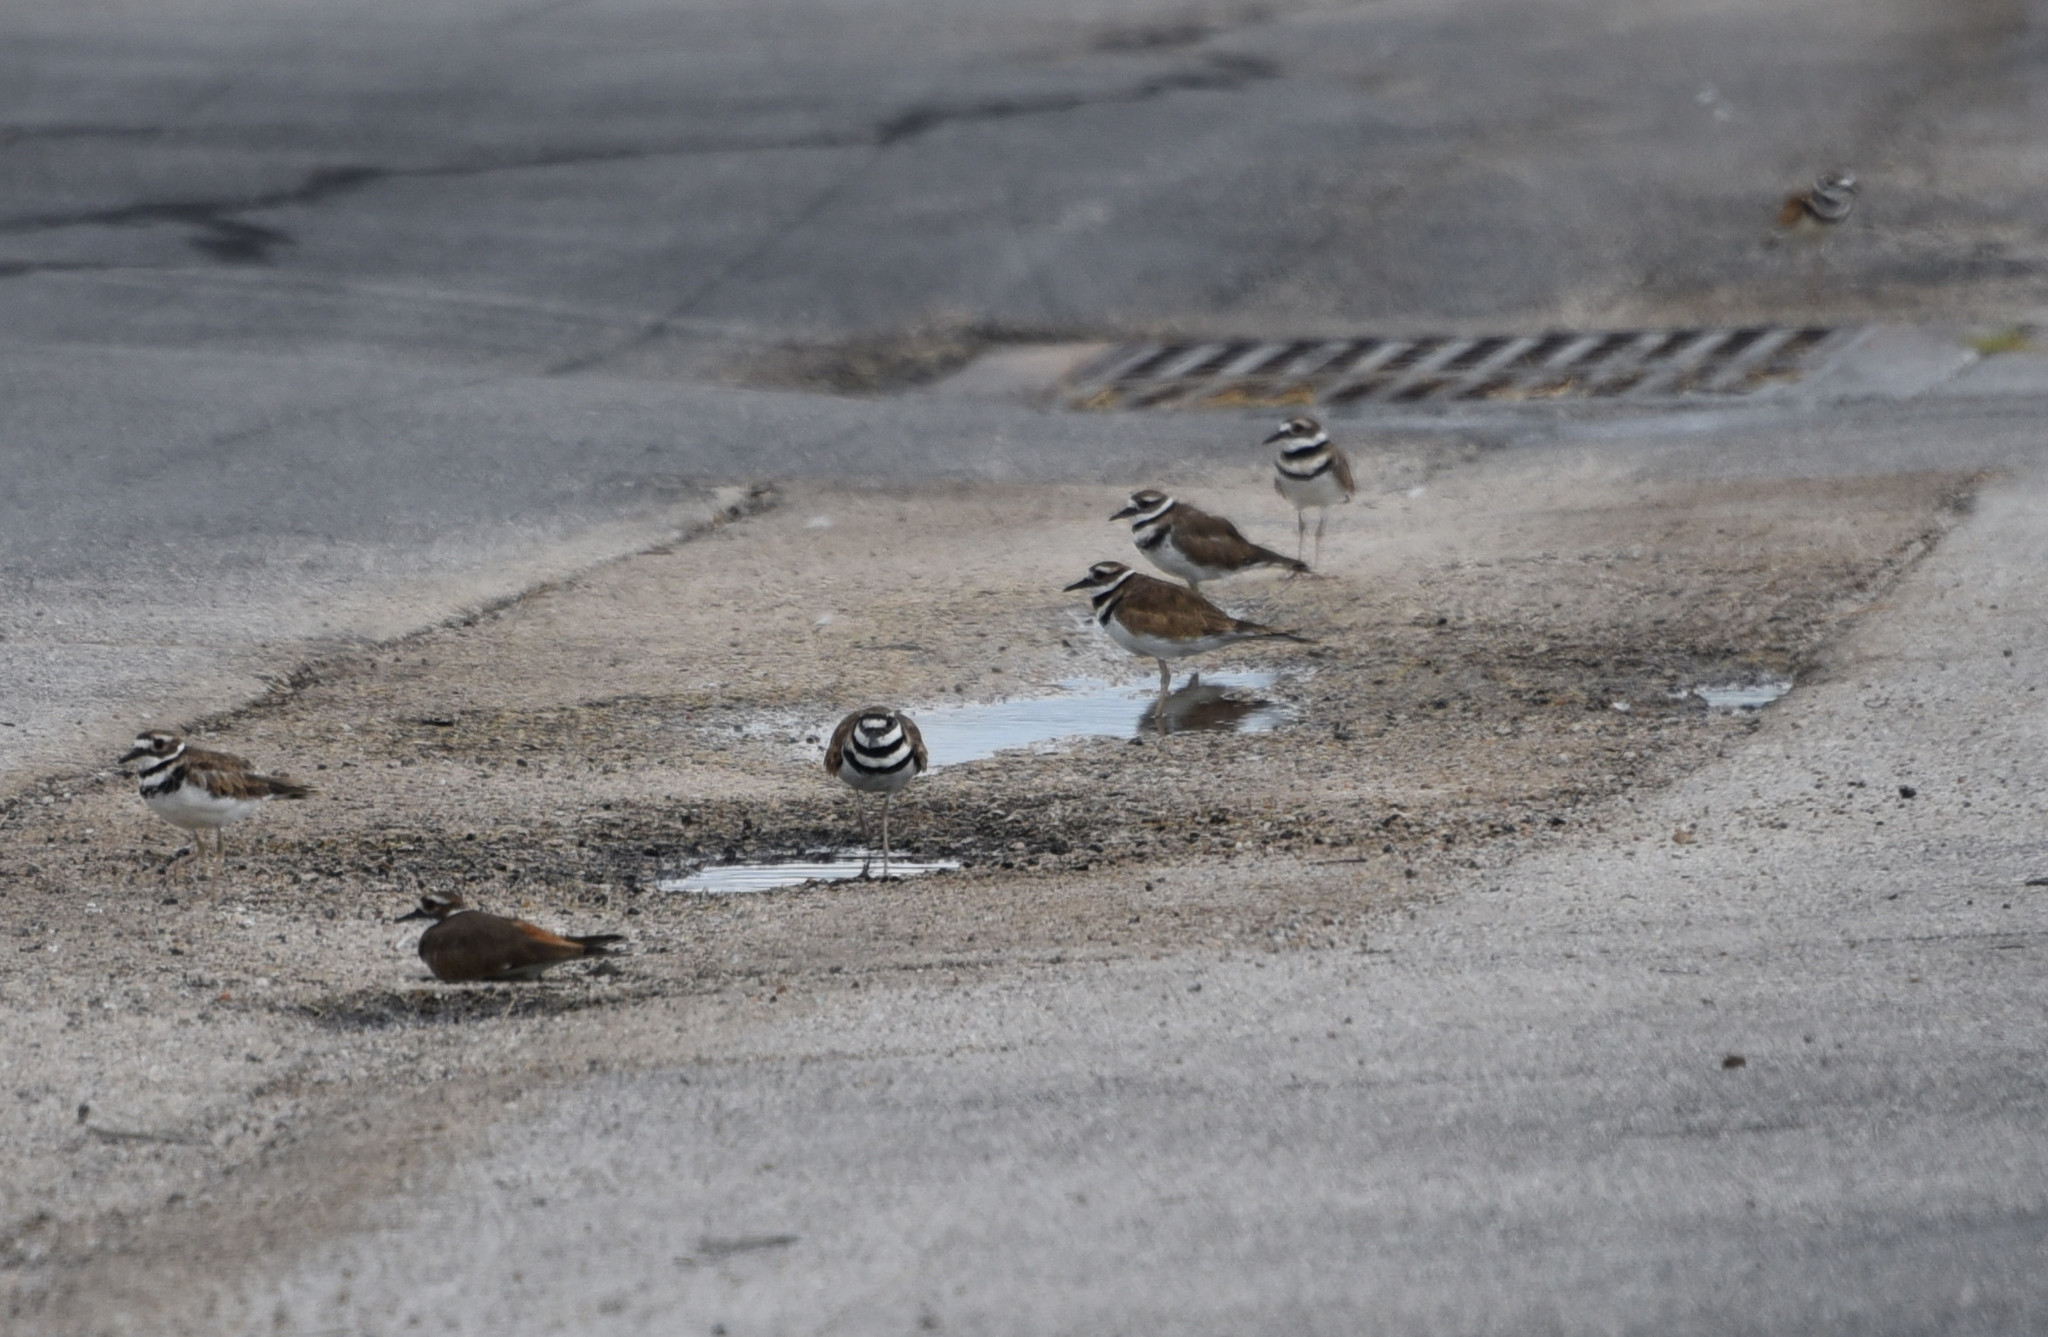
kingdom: Animalia
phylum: Chordata
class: Aves
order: Charadriiformes
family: Charadriidae
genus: Charadrius
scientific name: Charadrius vociferus
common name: Killdeer
